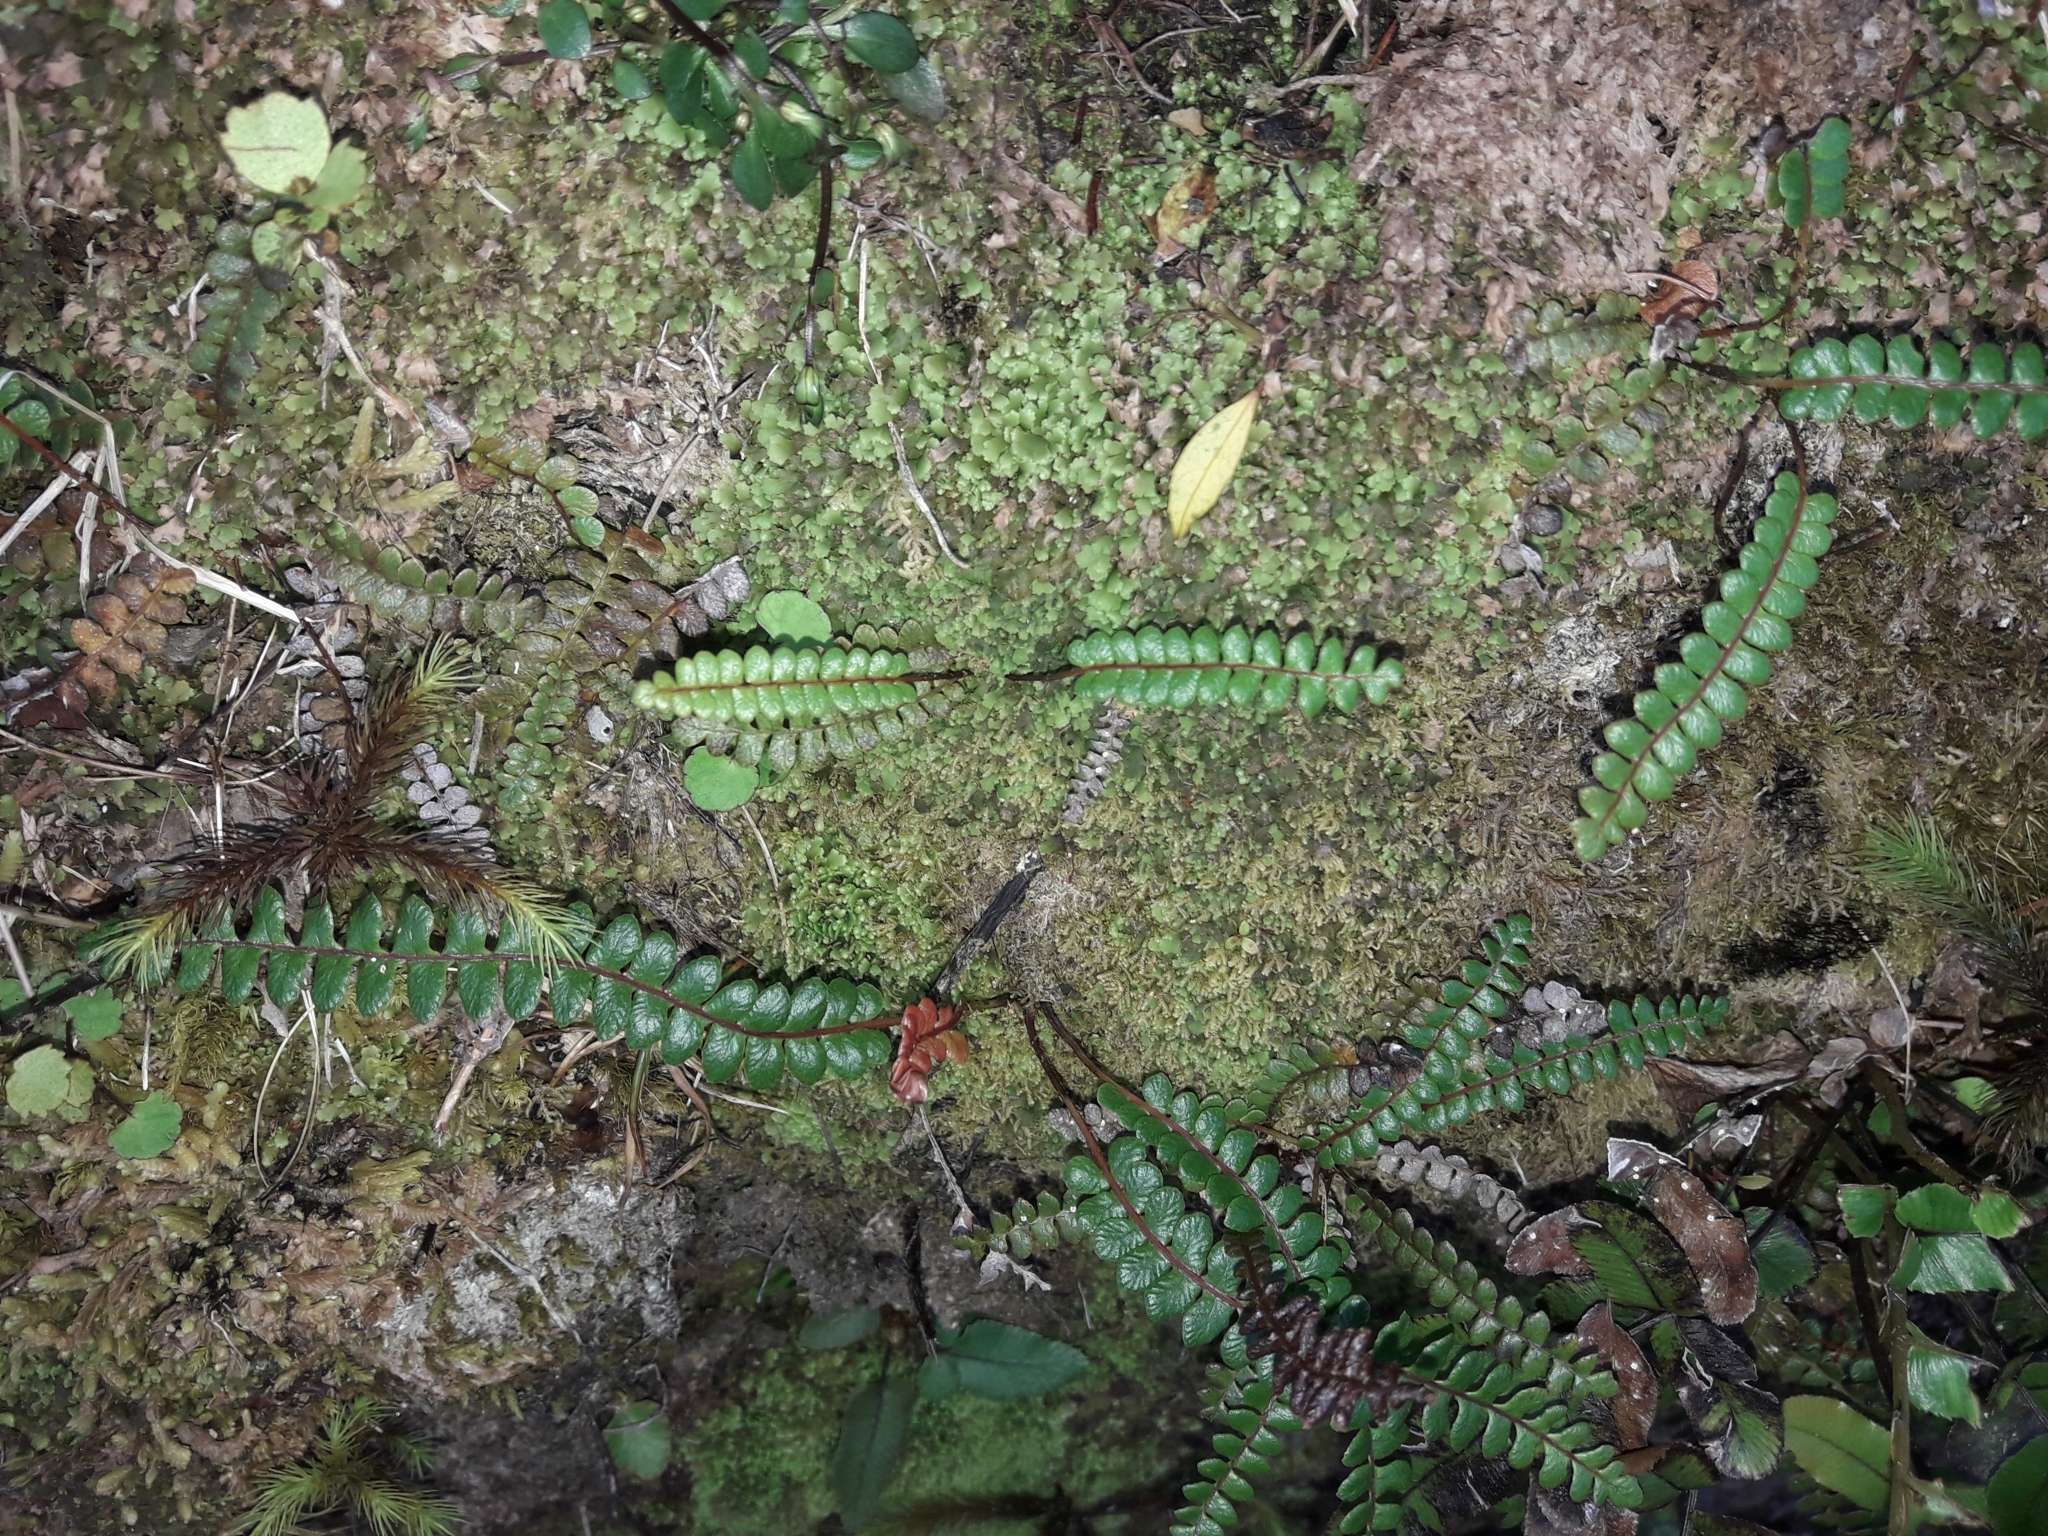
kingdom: Plantae
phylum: Tracheophyta
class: Polypodiopsida
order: Polypodiales
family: Blechnaceae
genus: Austroblechnum
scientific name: Austroblechnum penna-marina
